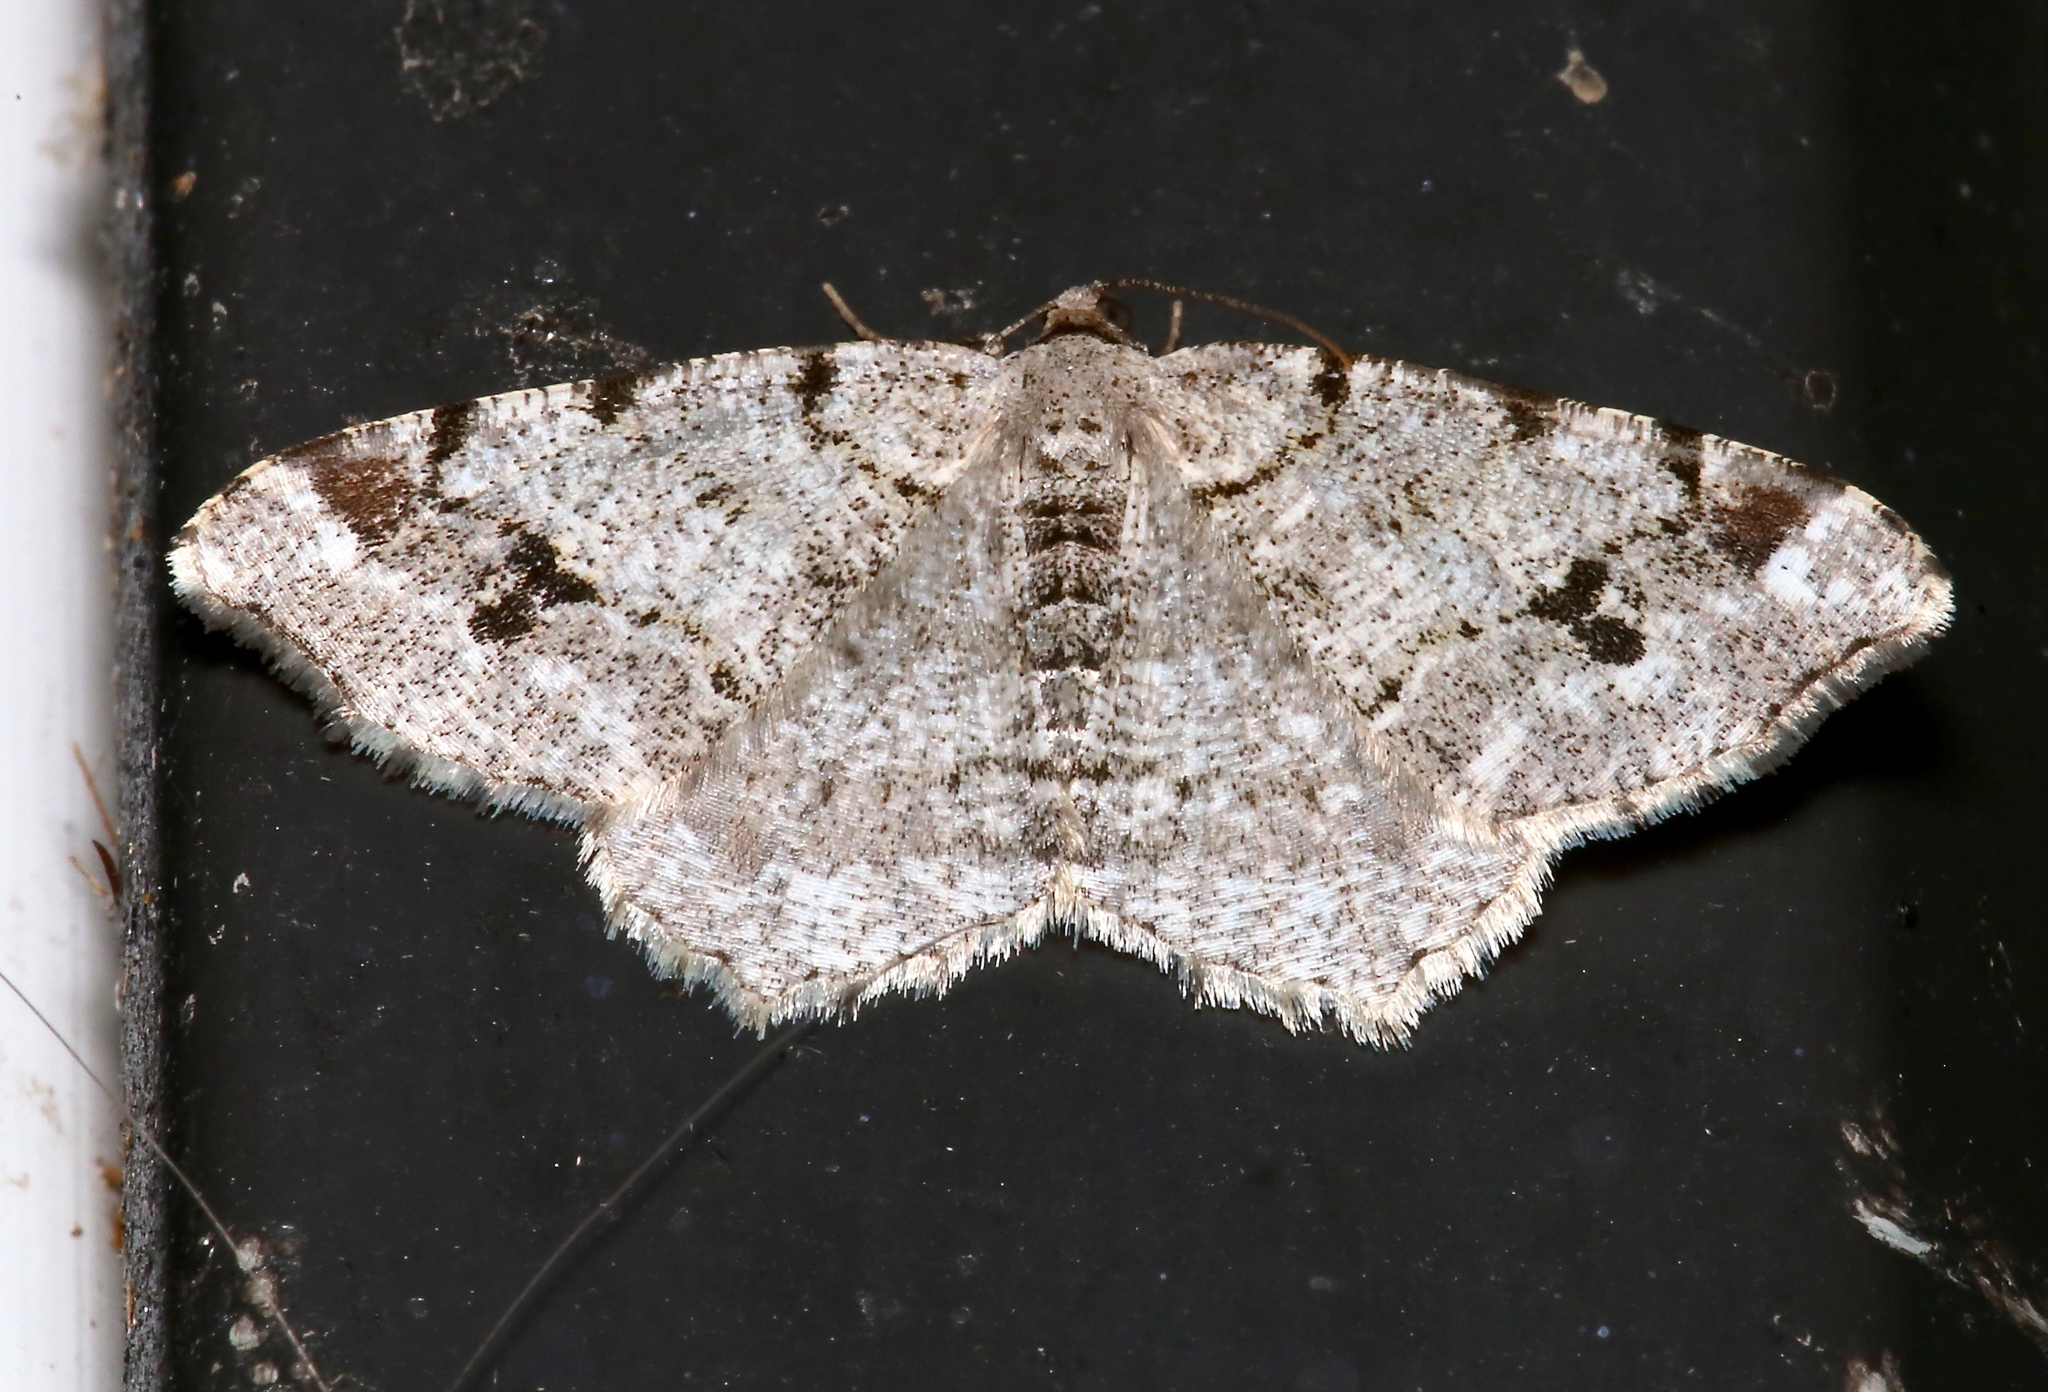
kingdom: Animalia
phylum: Arthropoda
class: Insecta
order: Lepidoptera
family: Geometridae
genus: Macaria
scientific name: Macaria pinistrobata
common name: White pine angle
